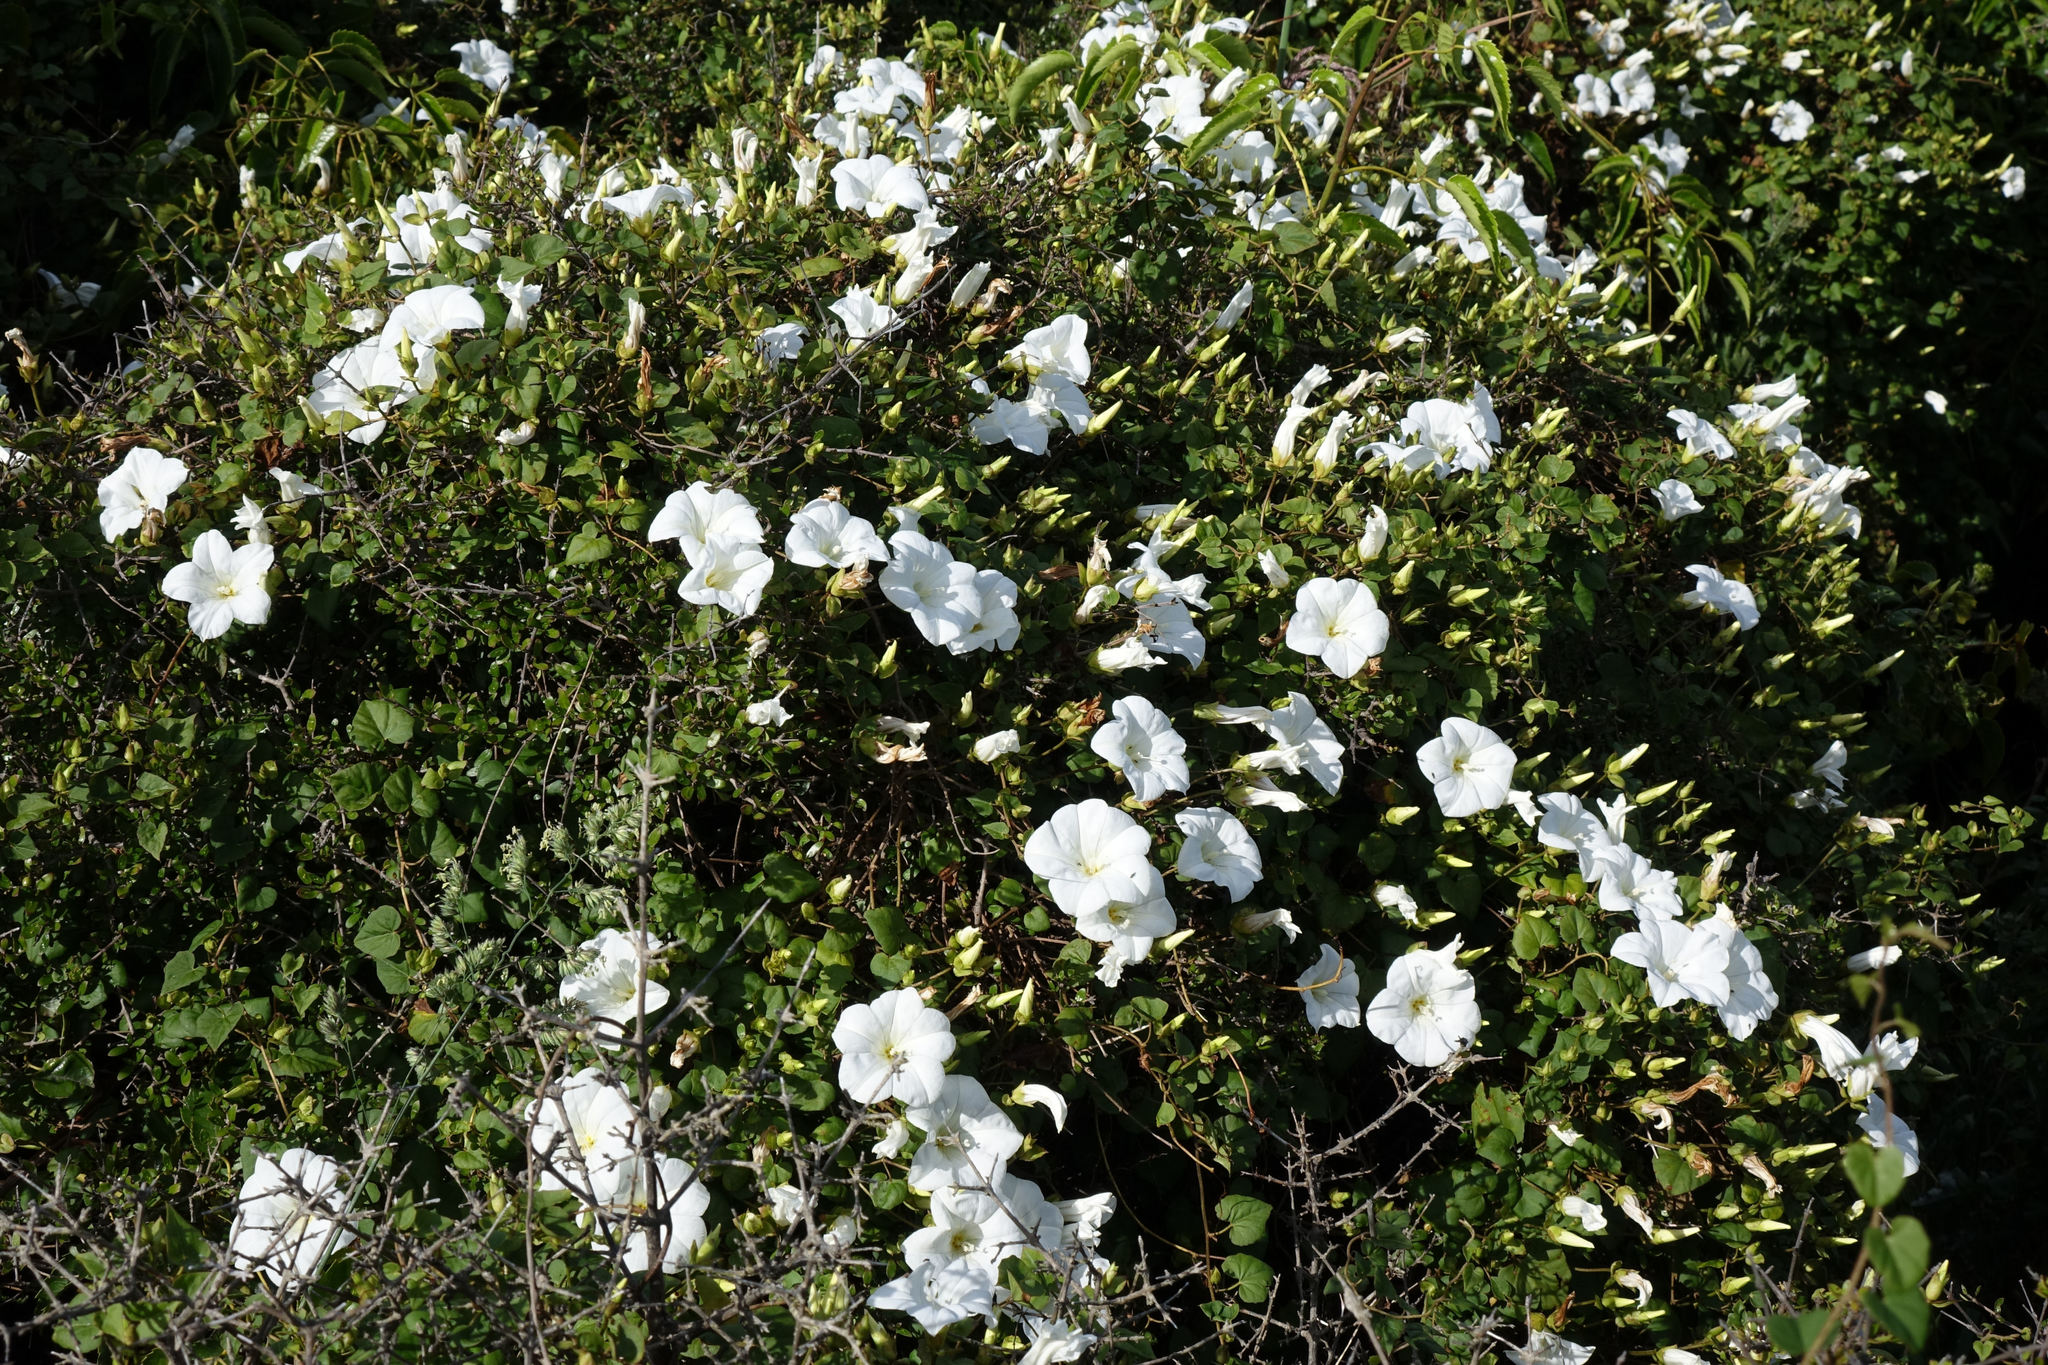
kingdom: Plantae
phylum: Tracheophyta
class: Magnoliopsida
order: Solanales
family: Convolvulaceae
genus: Calystegia
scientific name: Calystegia tuguriorum
